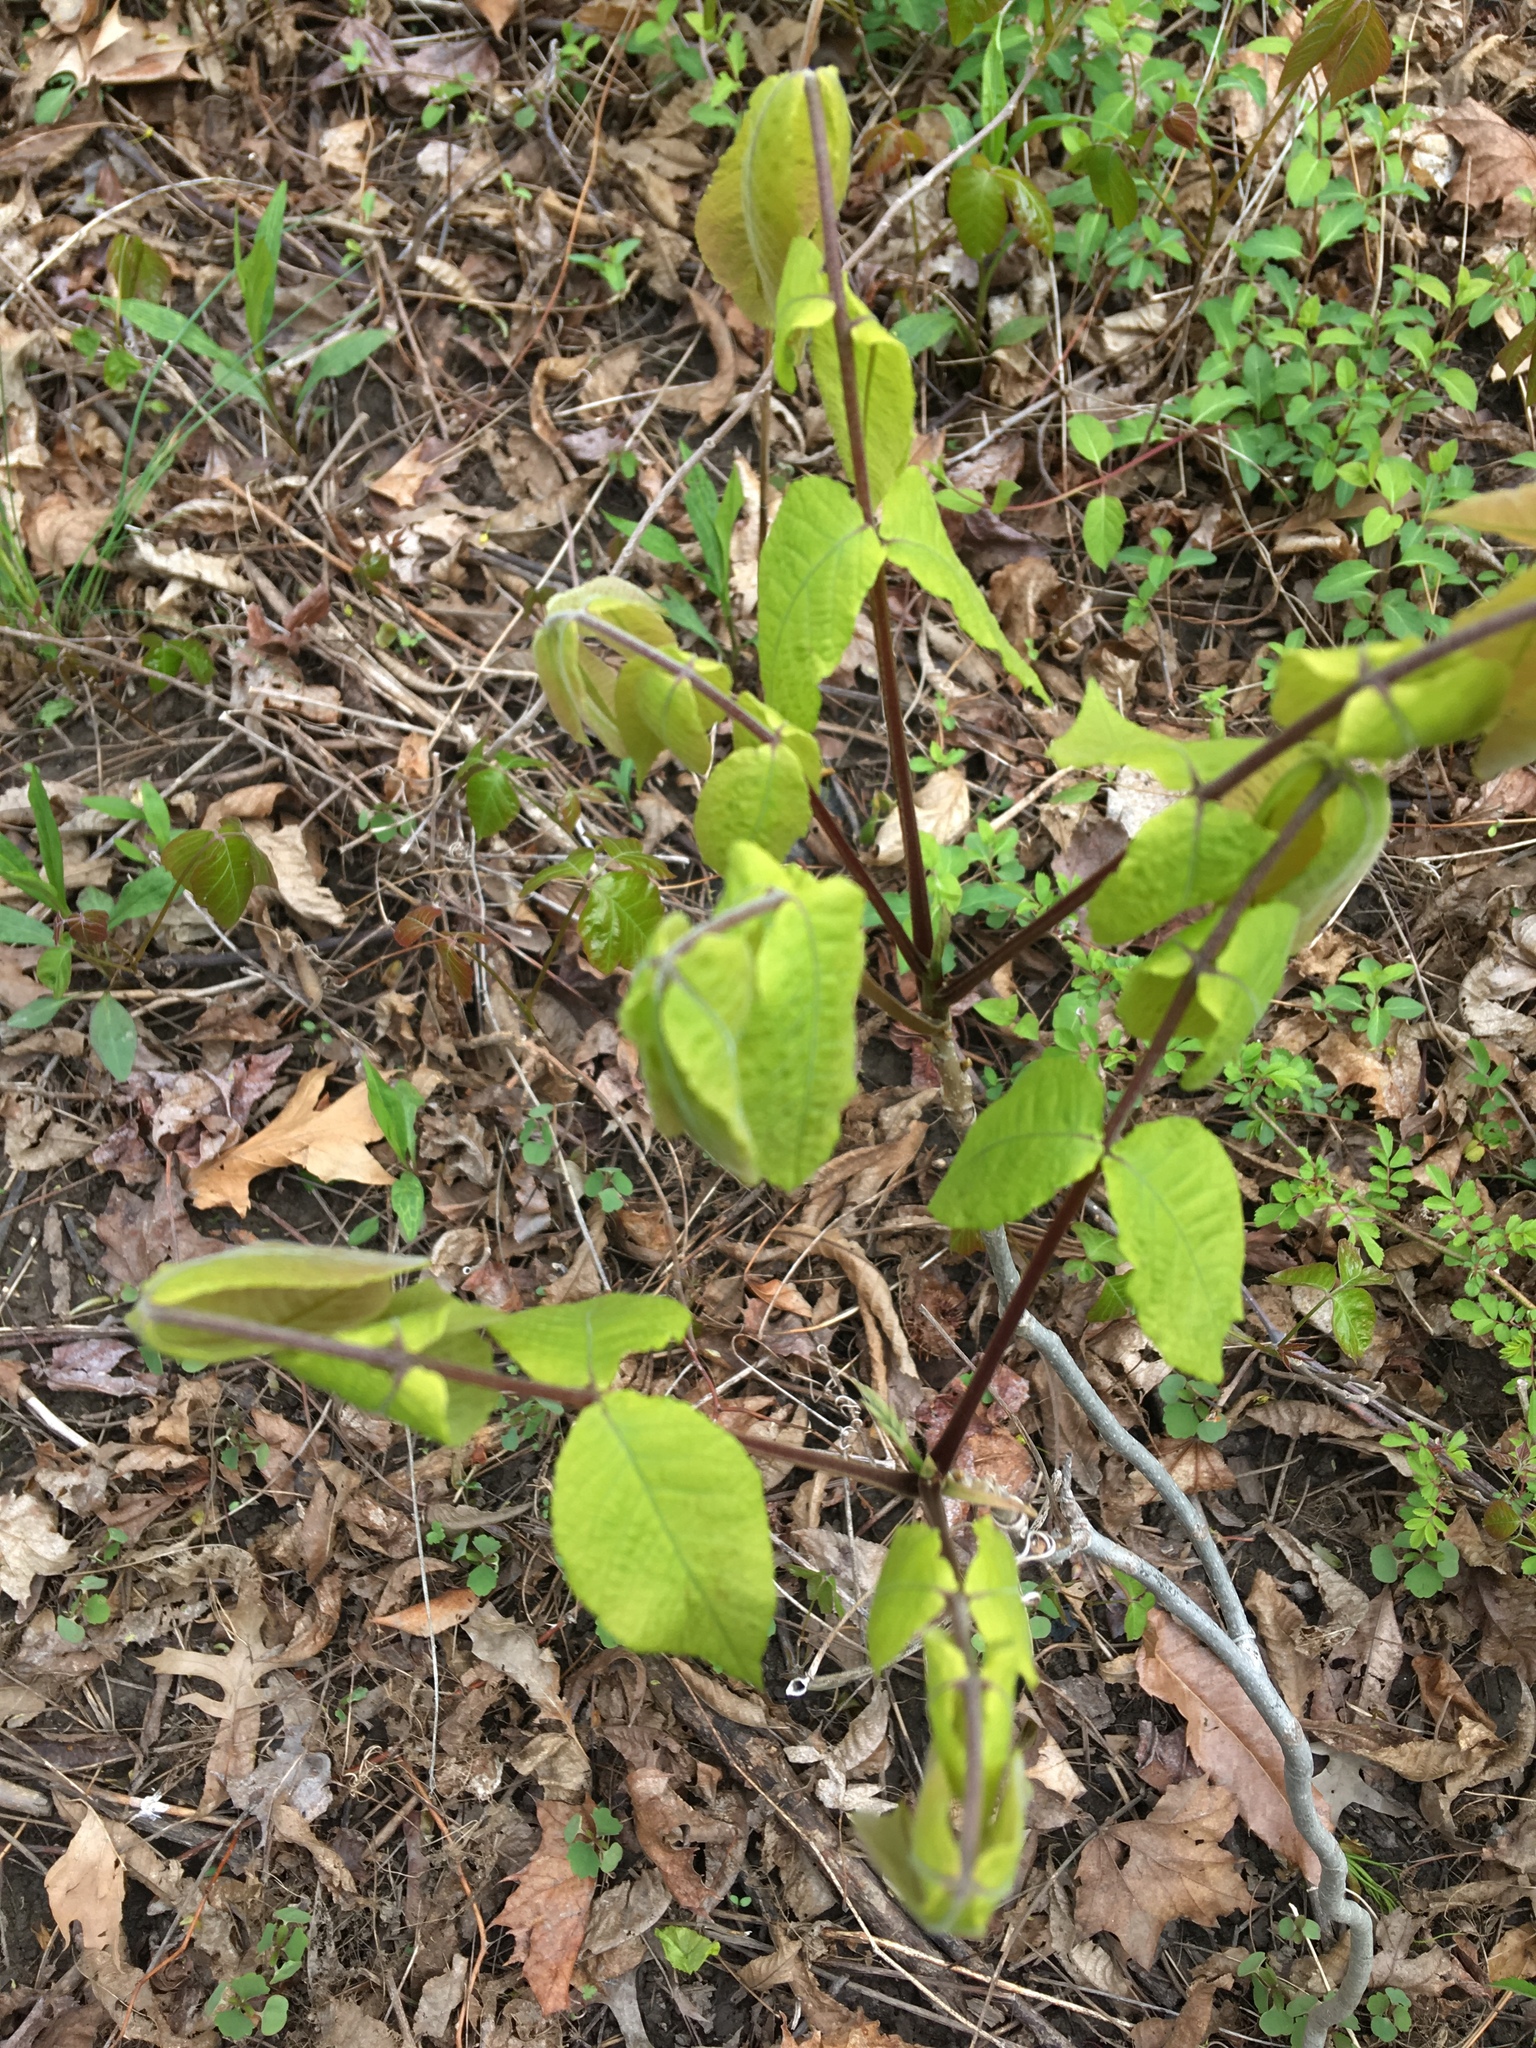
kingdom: Plantae
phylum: Tracheophyta
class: Magnoliopsida
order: Fagales
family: Juglandaceae
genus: Juglans
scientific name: Juglans nigra
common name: Black walnut
